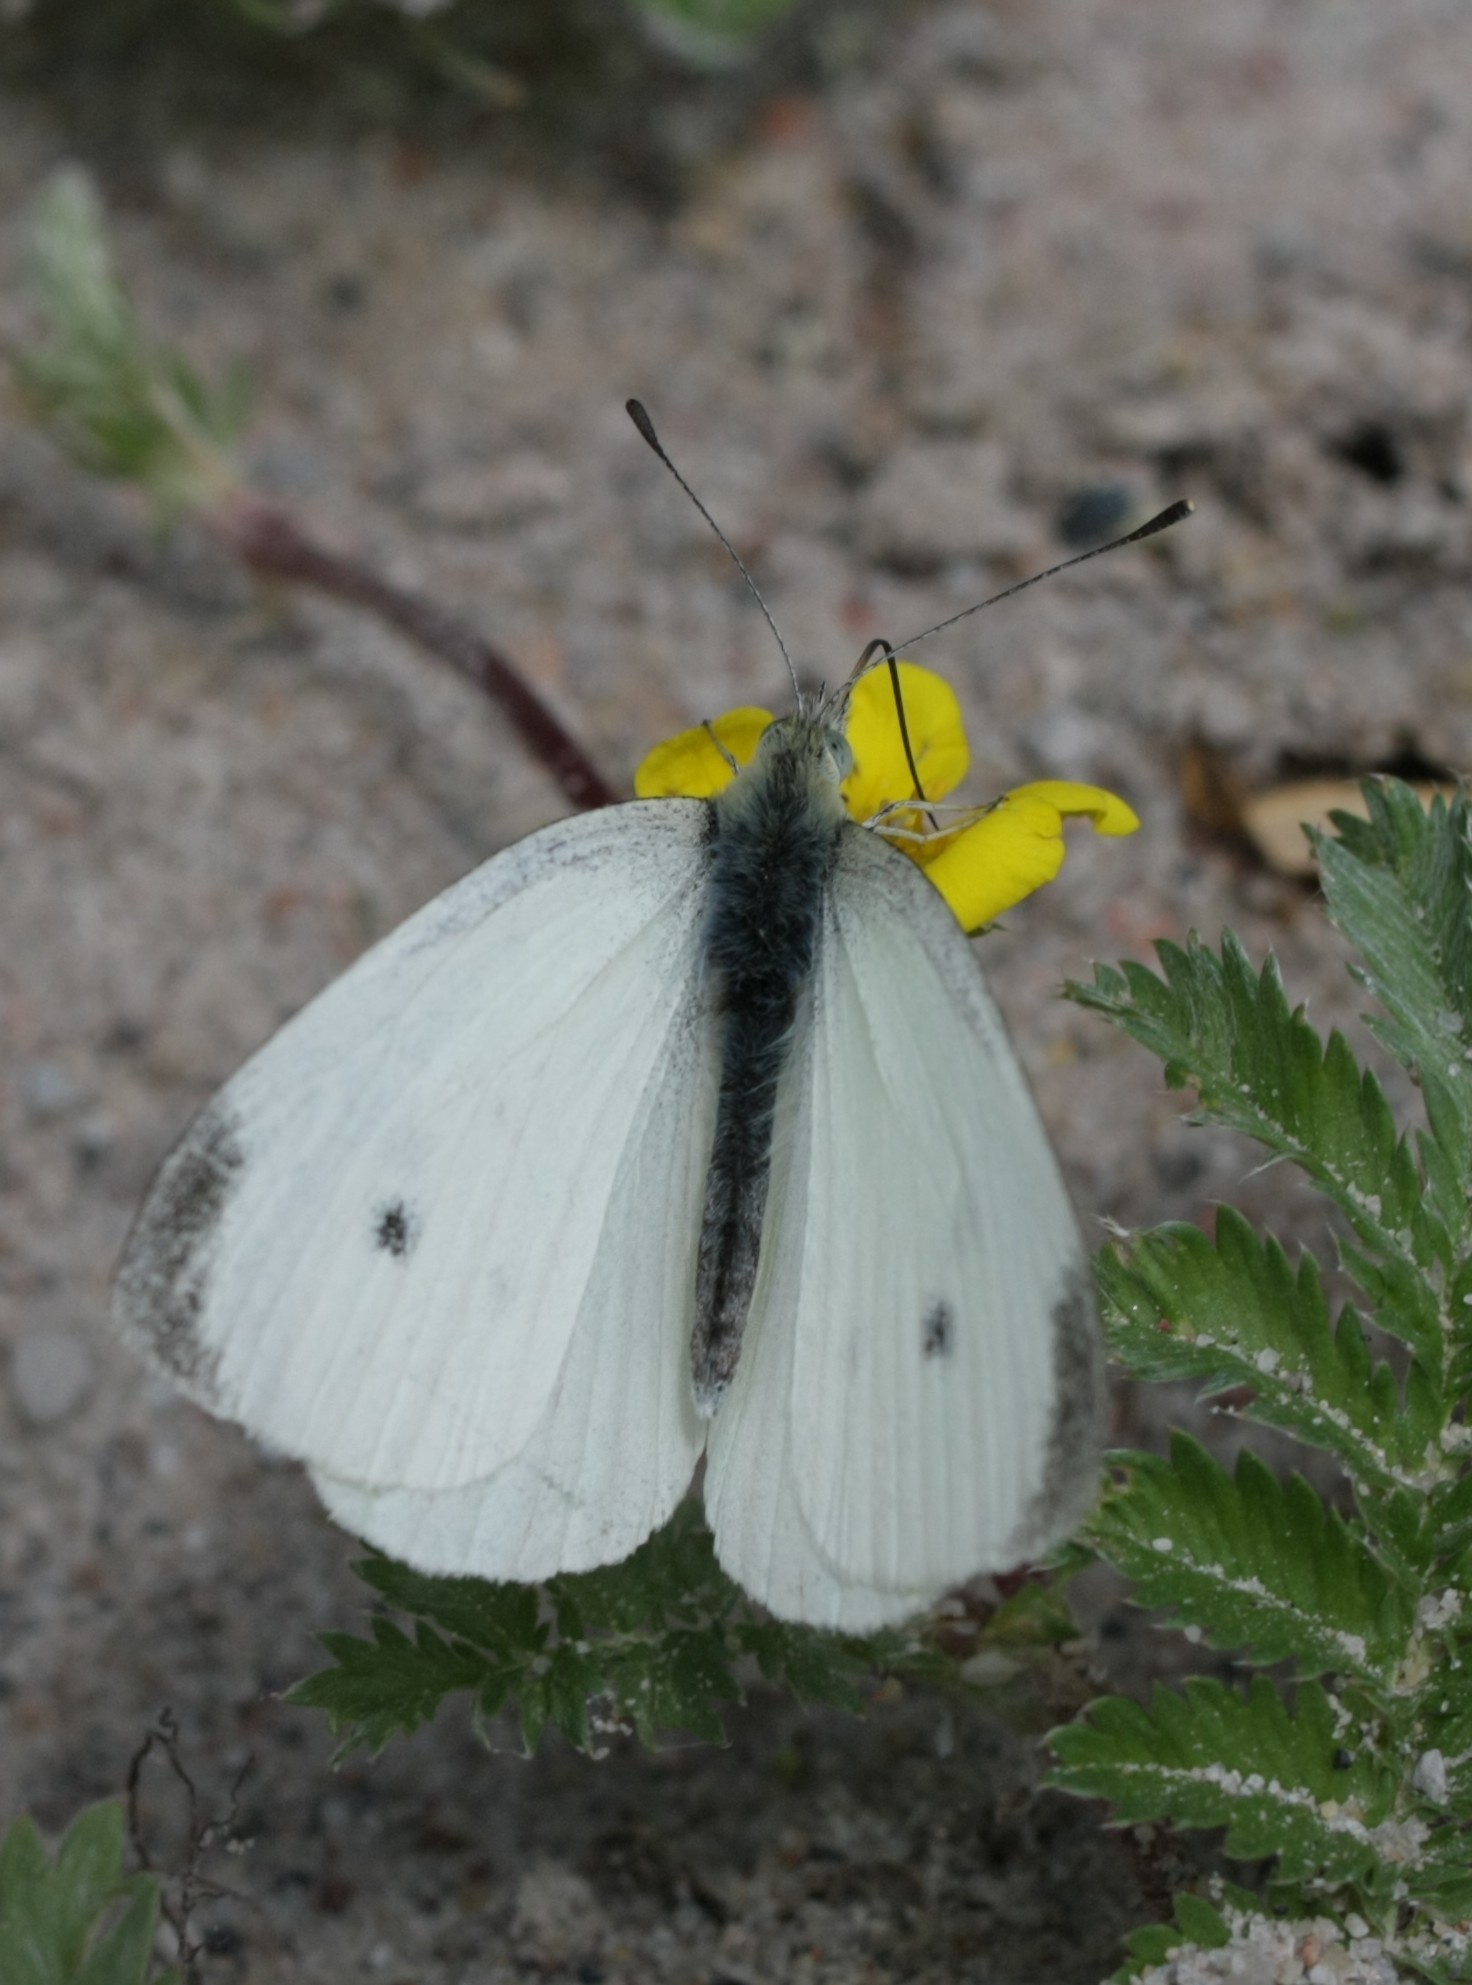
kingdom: Animalia
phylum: Arthropoda
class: Insecta
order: Lepidoptera
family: Pieridae
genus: Pieris
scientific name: Pieris rapae
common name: Small white
